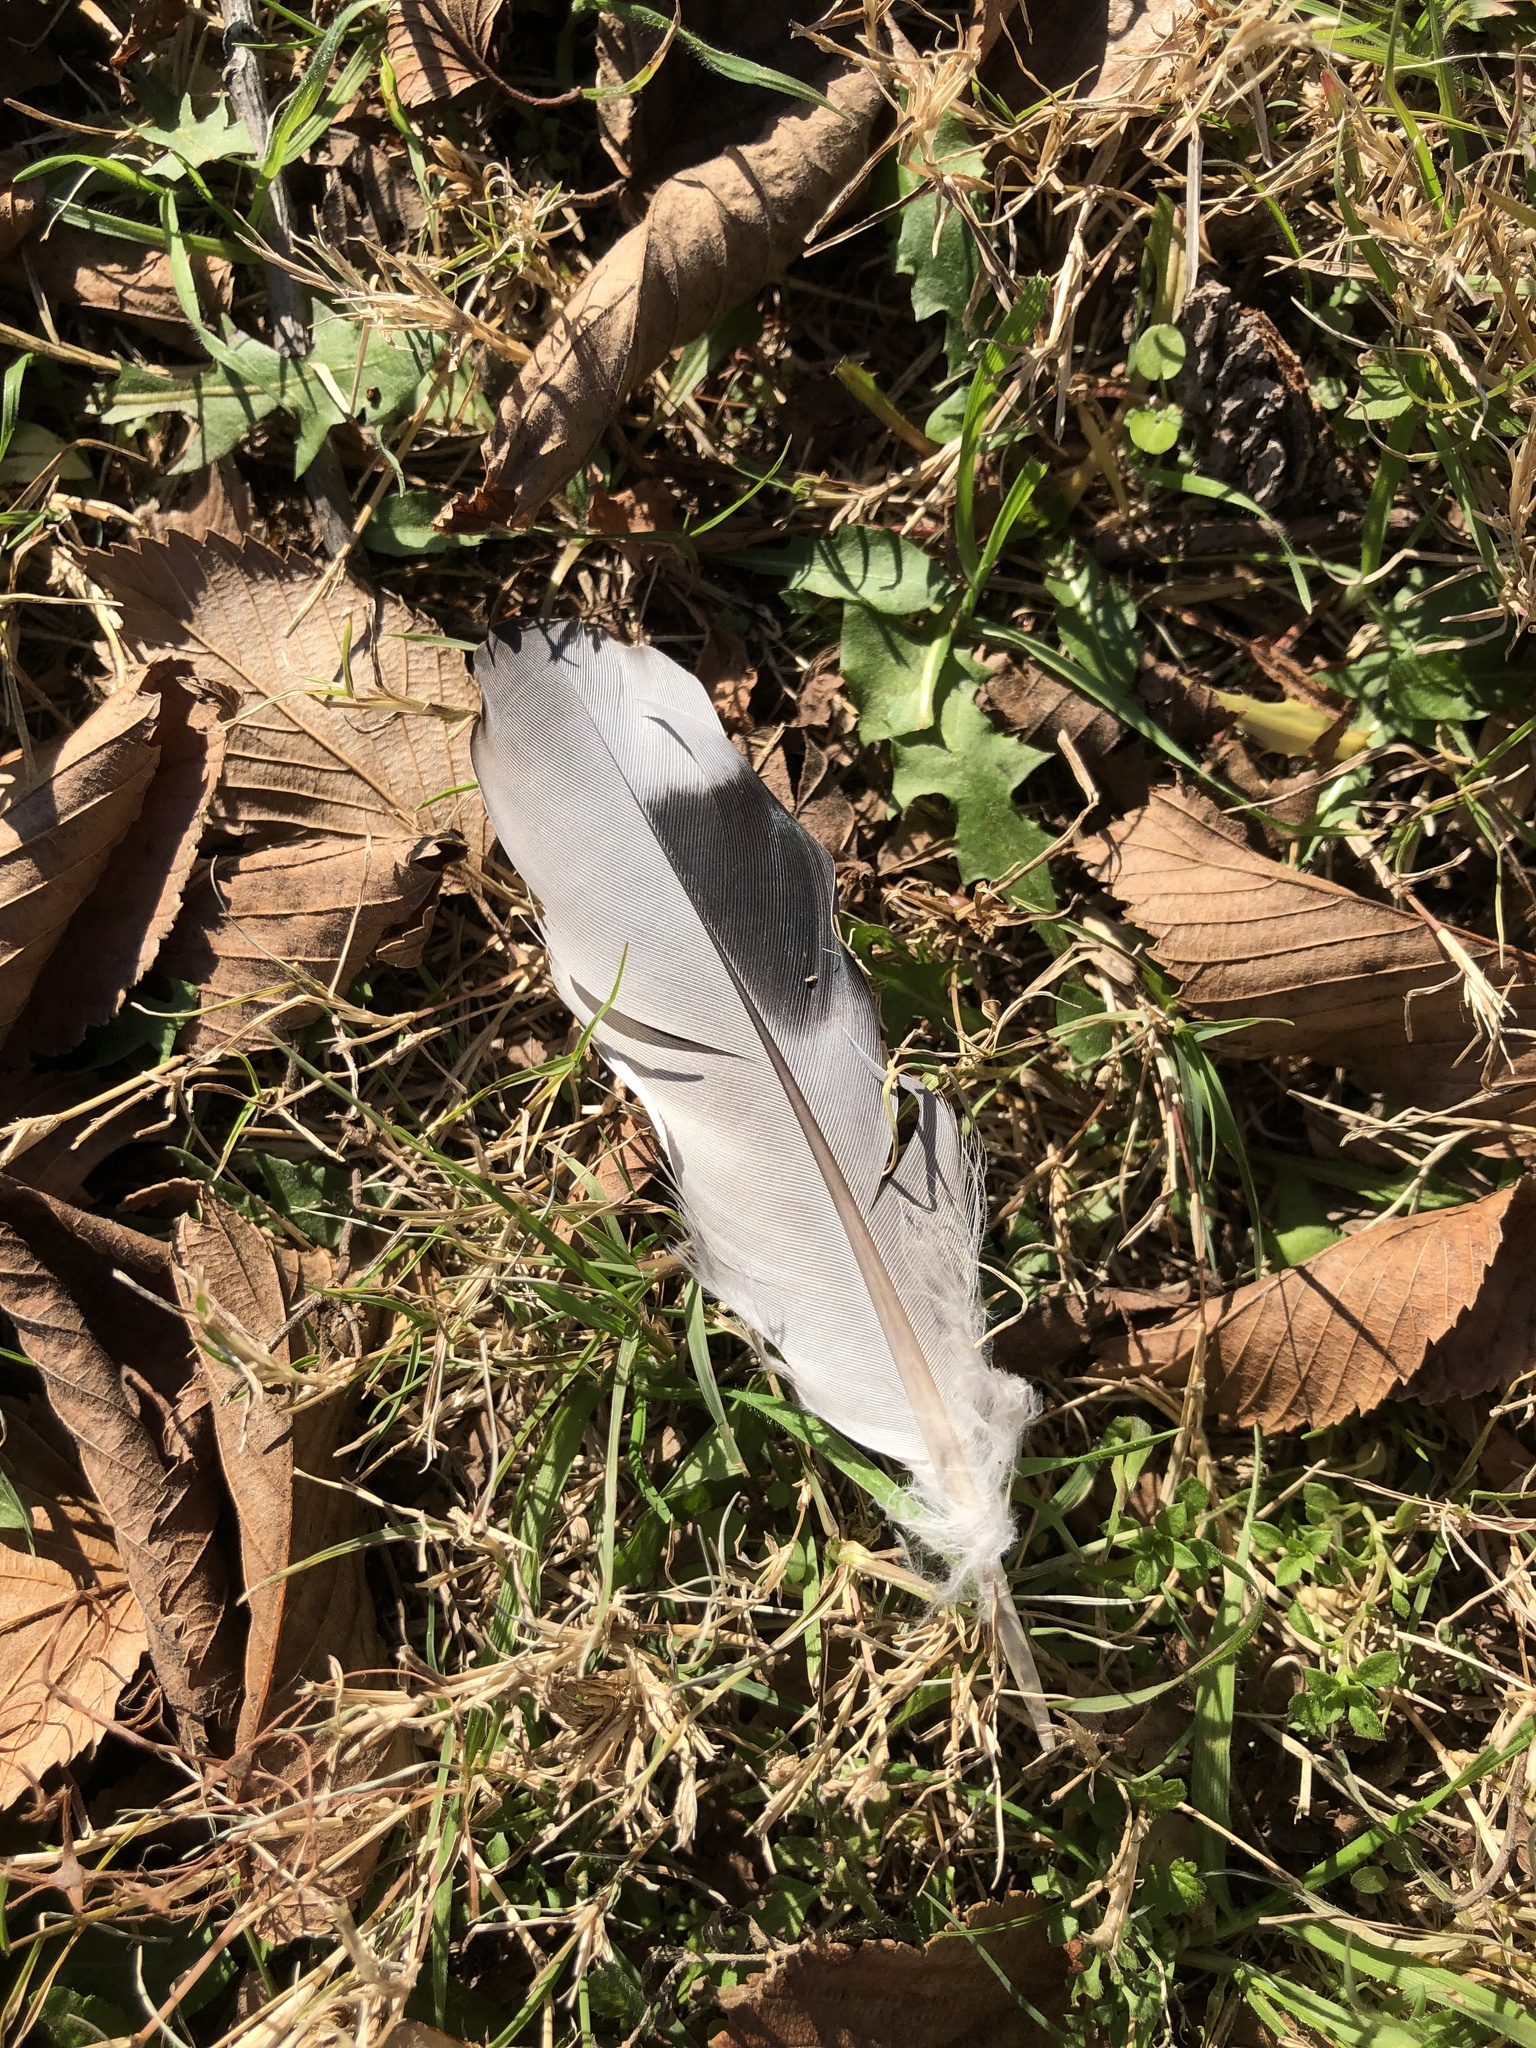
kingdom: Animalia
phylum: Chordata
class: Aves
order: Columbiformes
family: Columbidae
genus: Columba
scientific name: Columba livia
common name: Rock pigeon
